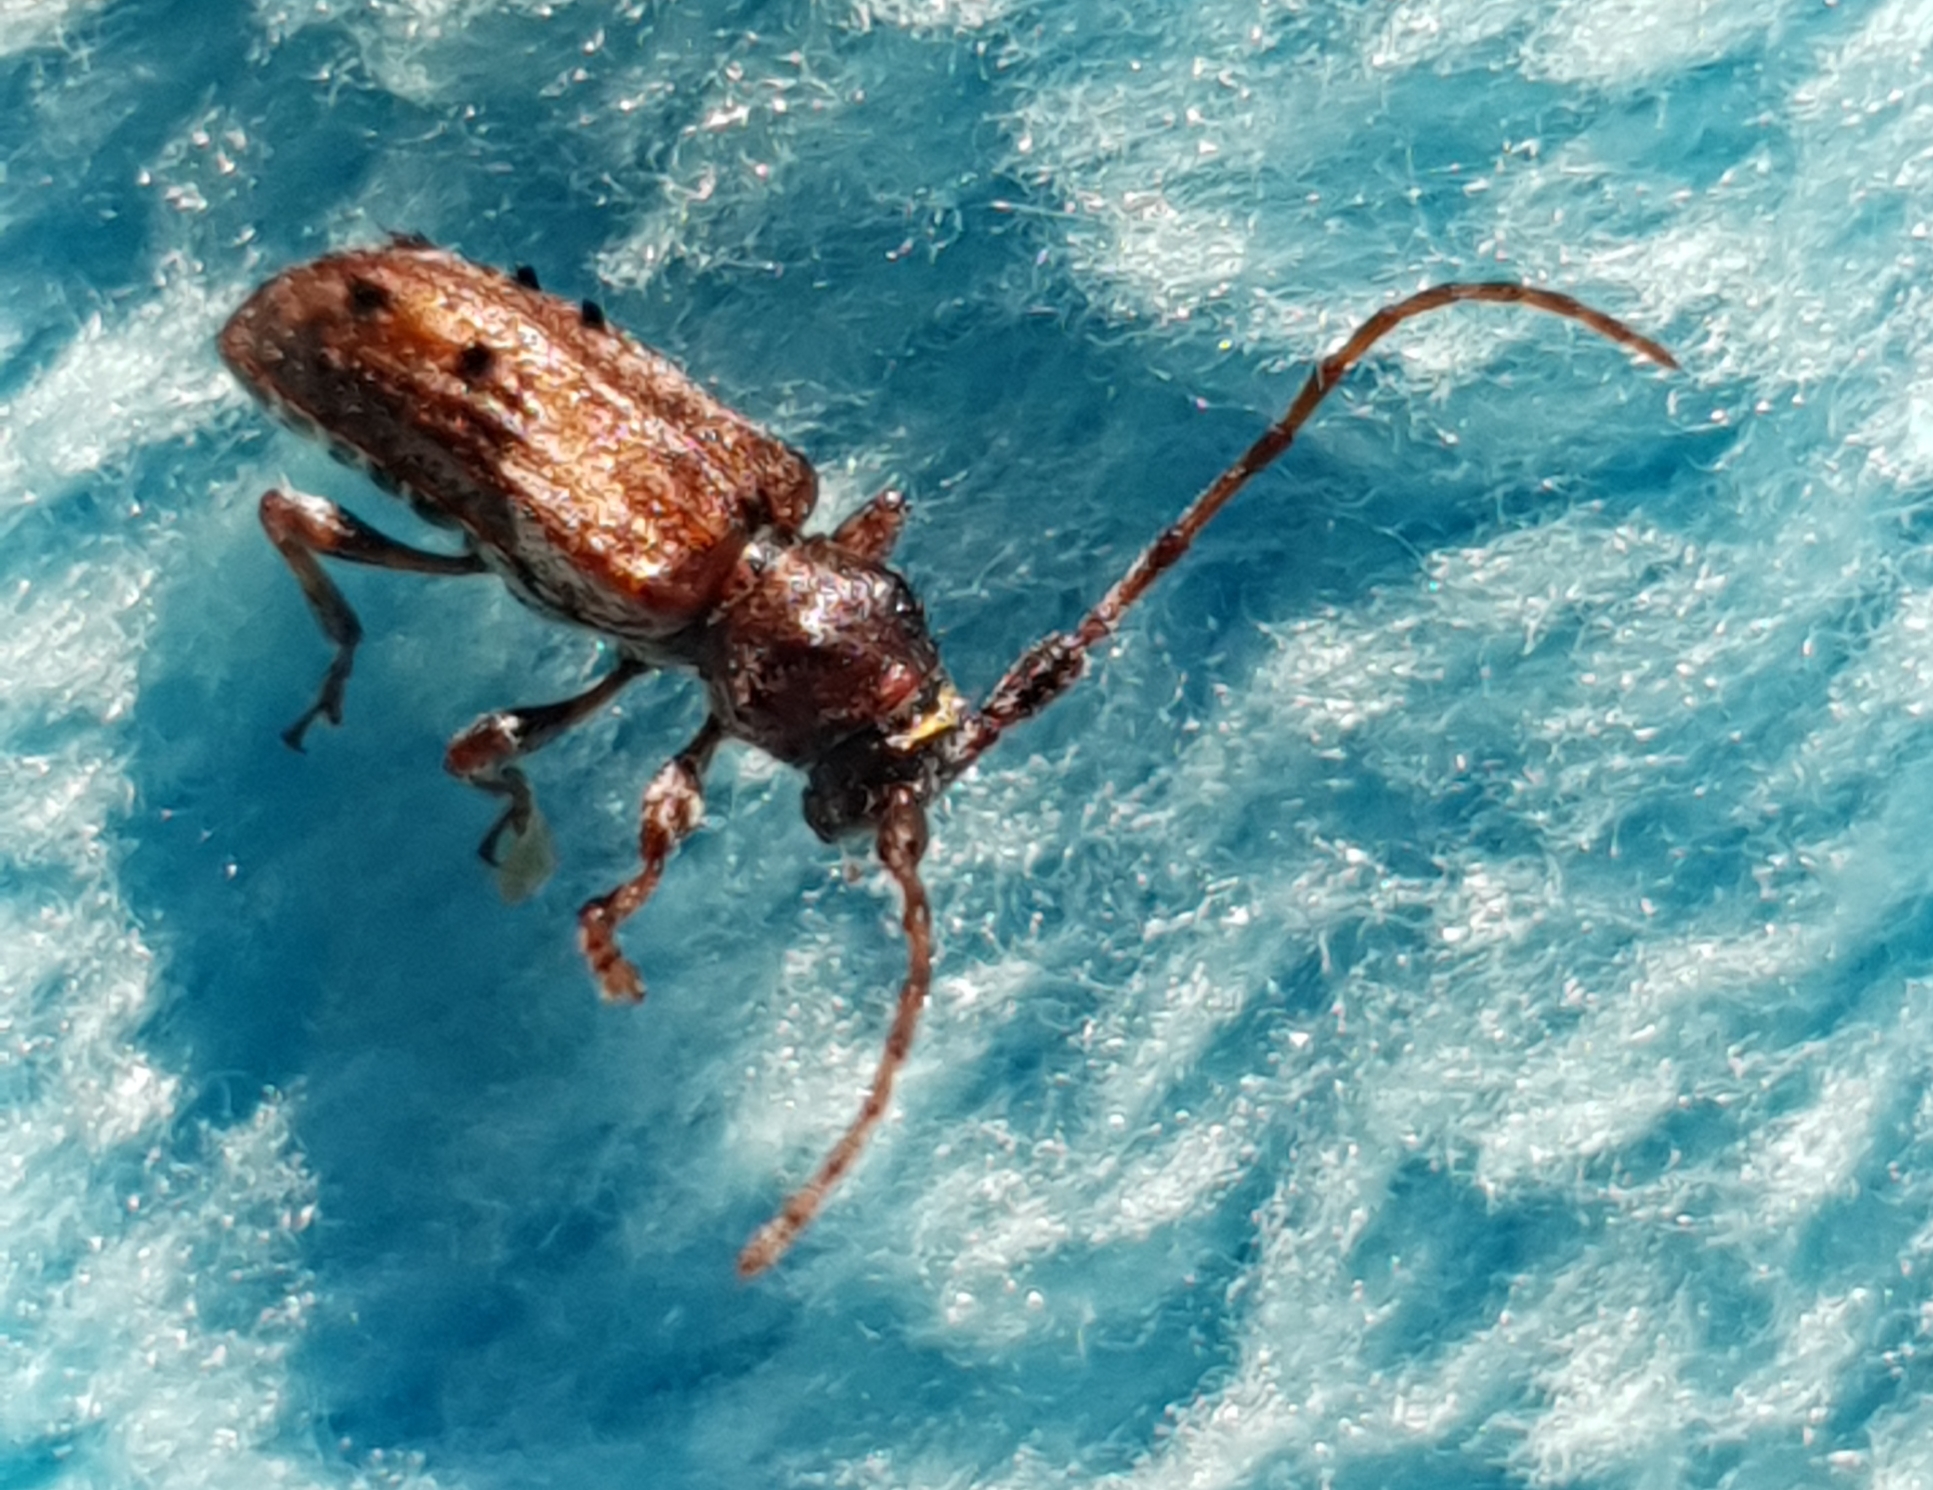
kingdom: Animalia
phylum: Arthropoda
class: Insecta
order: Coleoptera
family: Cerambycidae
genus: Pogonocherus
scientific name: Pogonocherus fasciculatus
